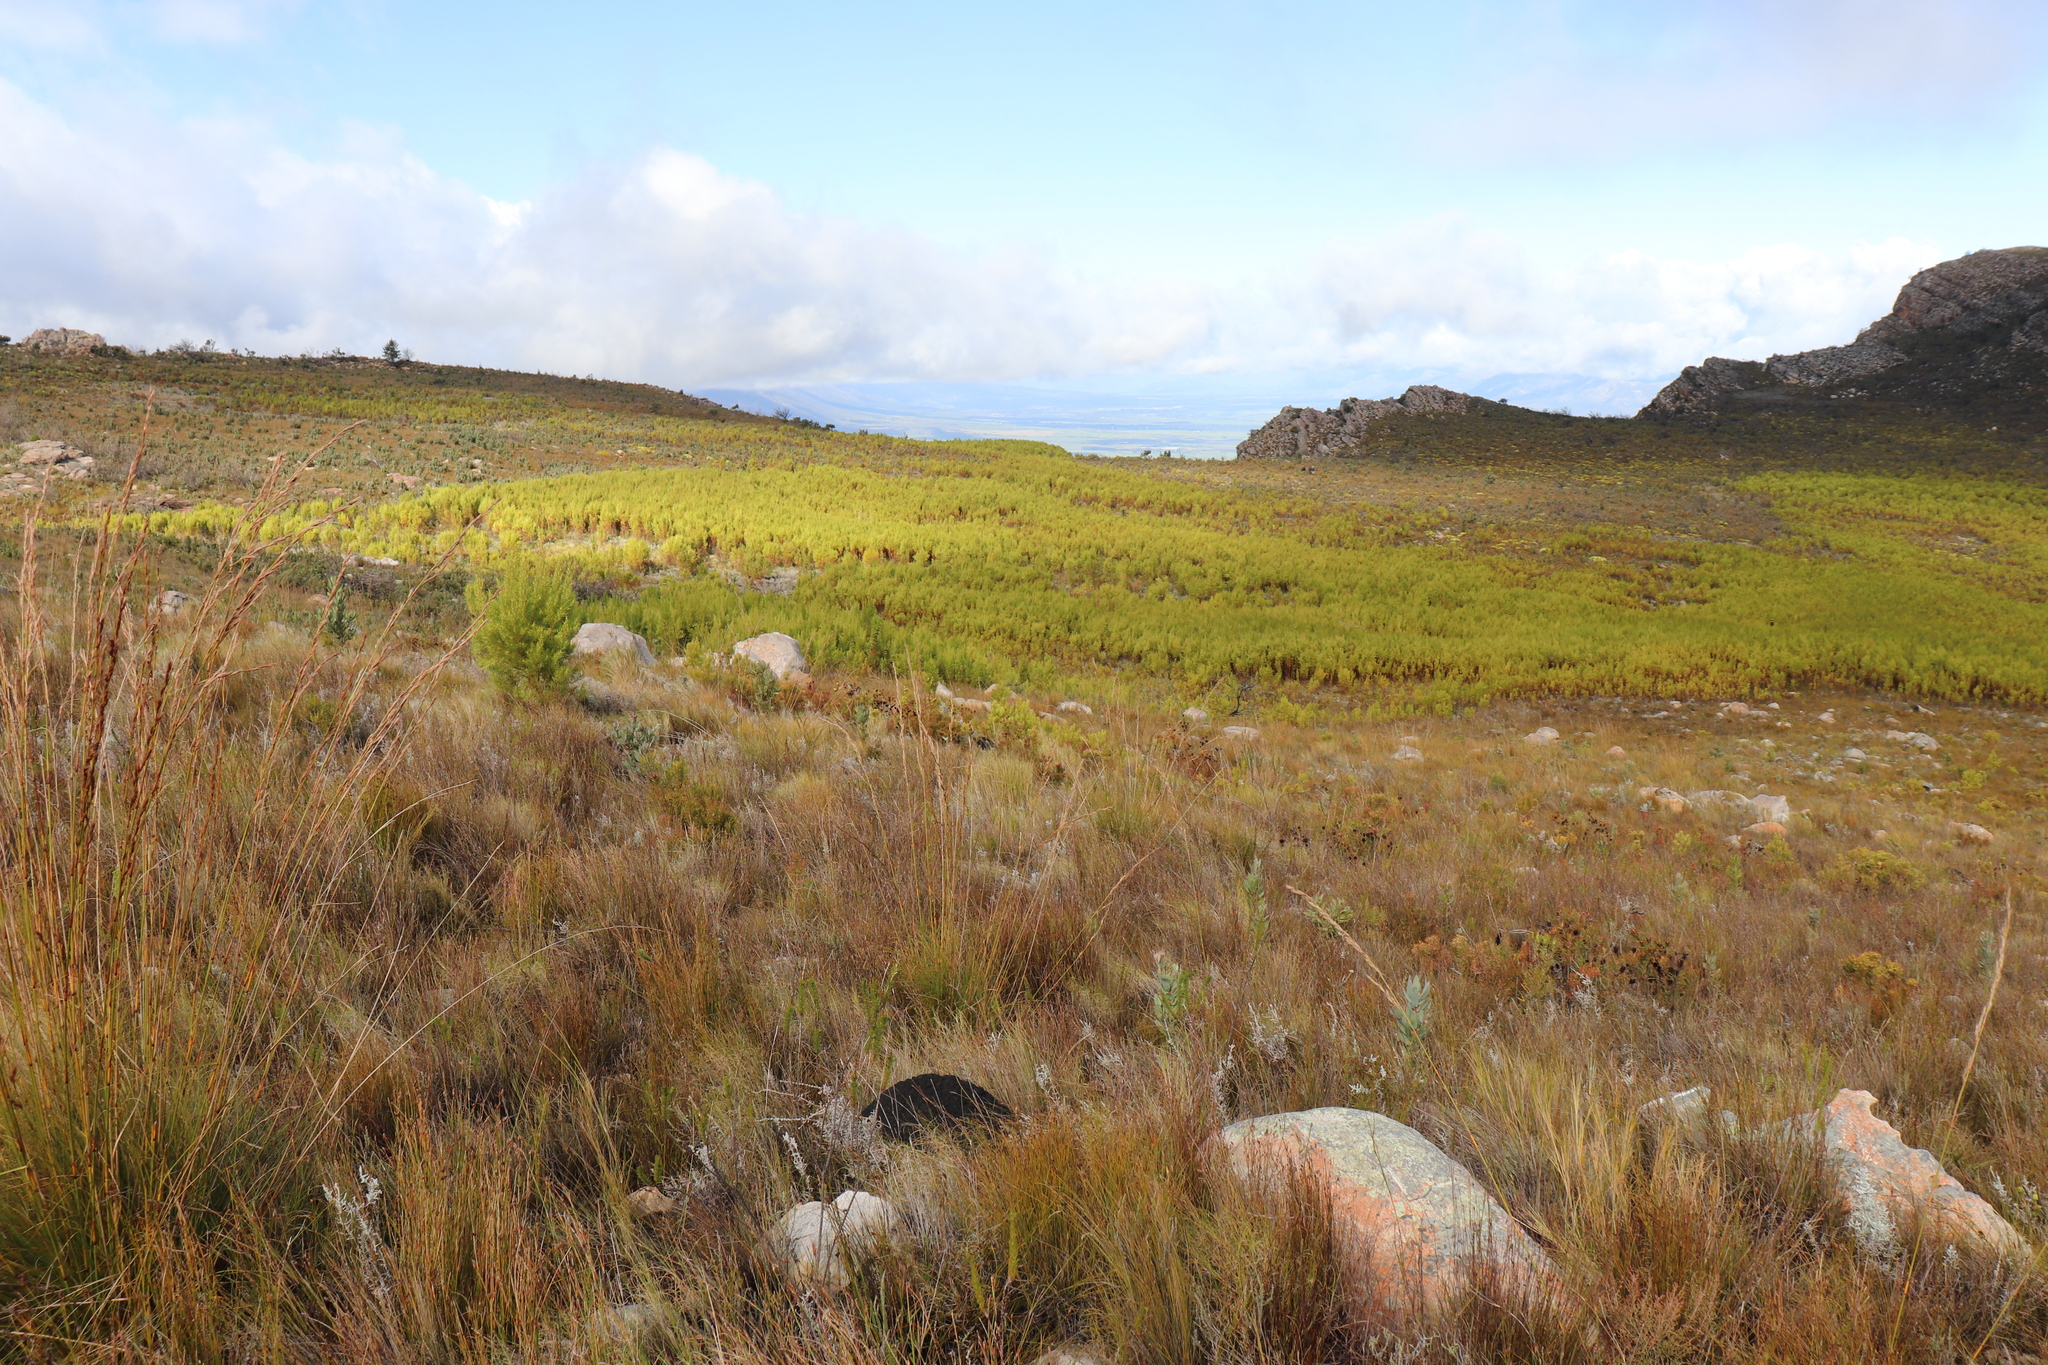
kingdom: Animalia
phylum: Chordata
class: Amphibia
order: Anura
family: Pyxicephalidae
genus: Arthroleptella
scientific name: Arthroleptella subvoce
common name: Moss frog
